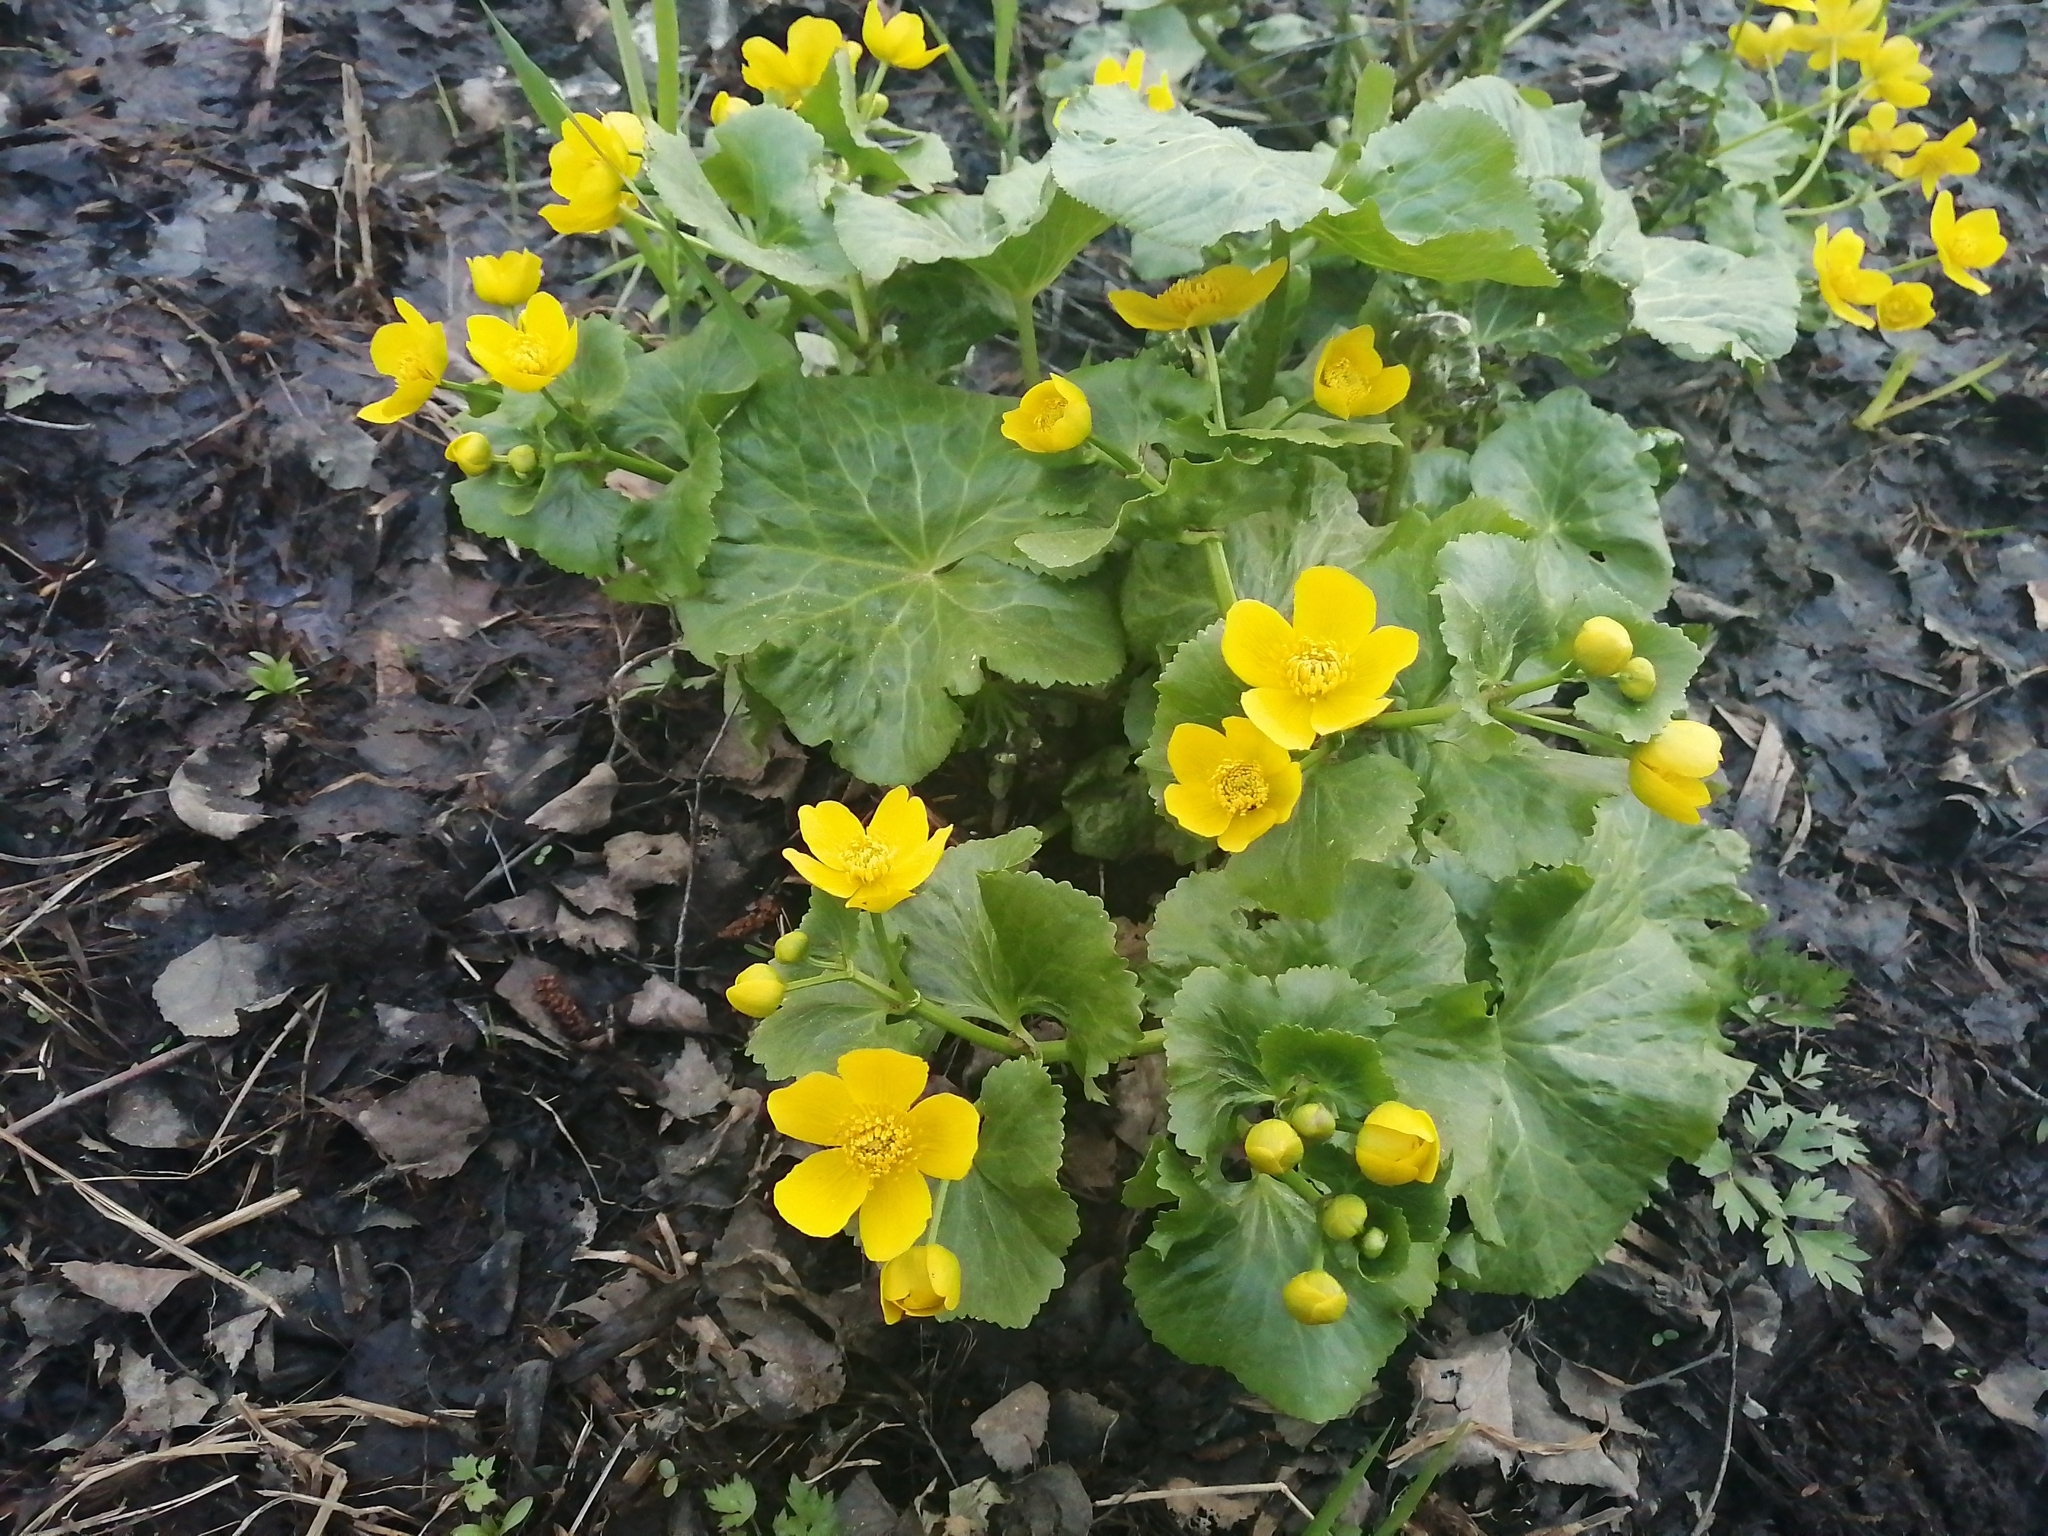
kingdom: Plantae
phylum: Tracheophyta
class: Magnoliopsida
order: Ranunculales
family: Ranunculaceae
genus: Caltha
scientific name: Caltha palustris
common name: Marsh marigold
